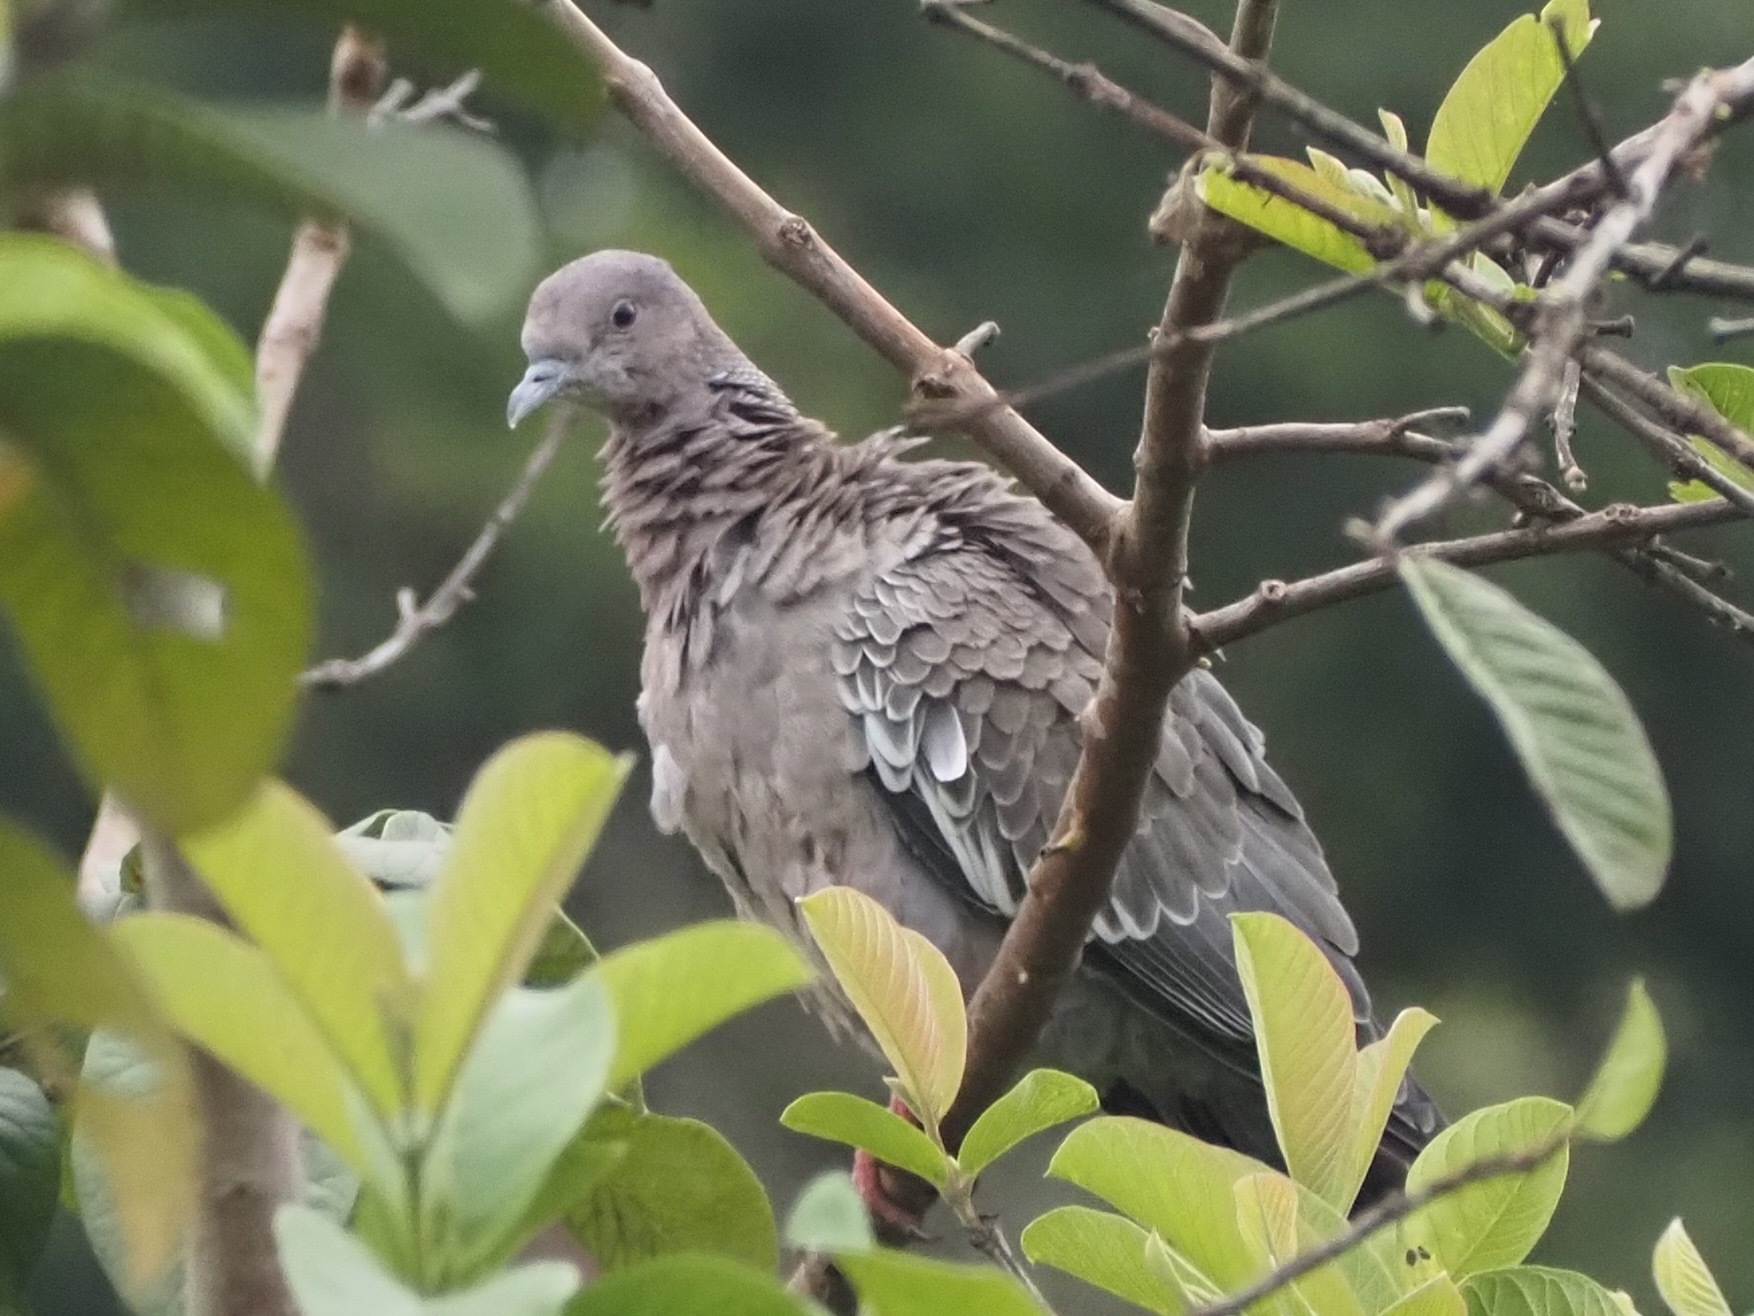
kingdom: Animalia
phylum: Chordata
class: Aves
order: Columbiformes
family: Columbidae
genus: Patagioenas
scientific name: Patagioenas picazuro
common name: Picazuro pigeon
